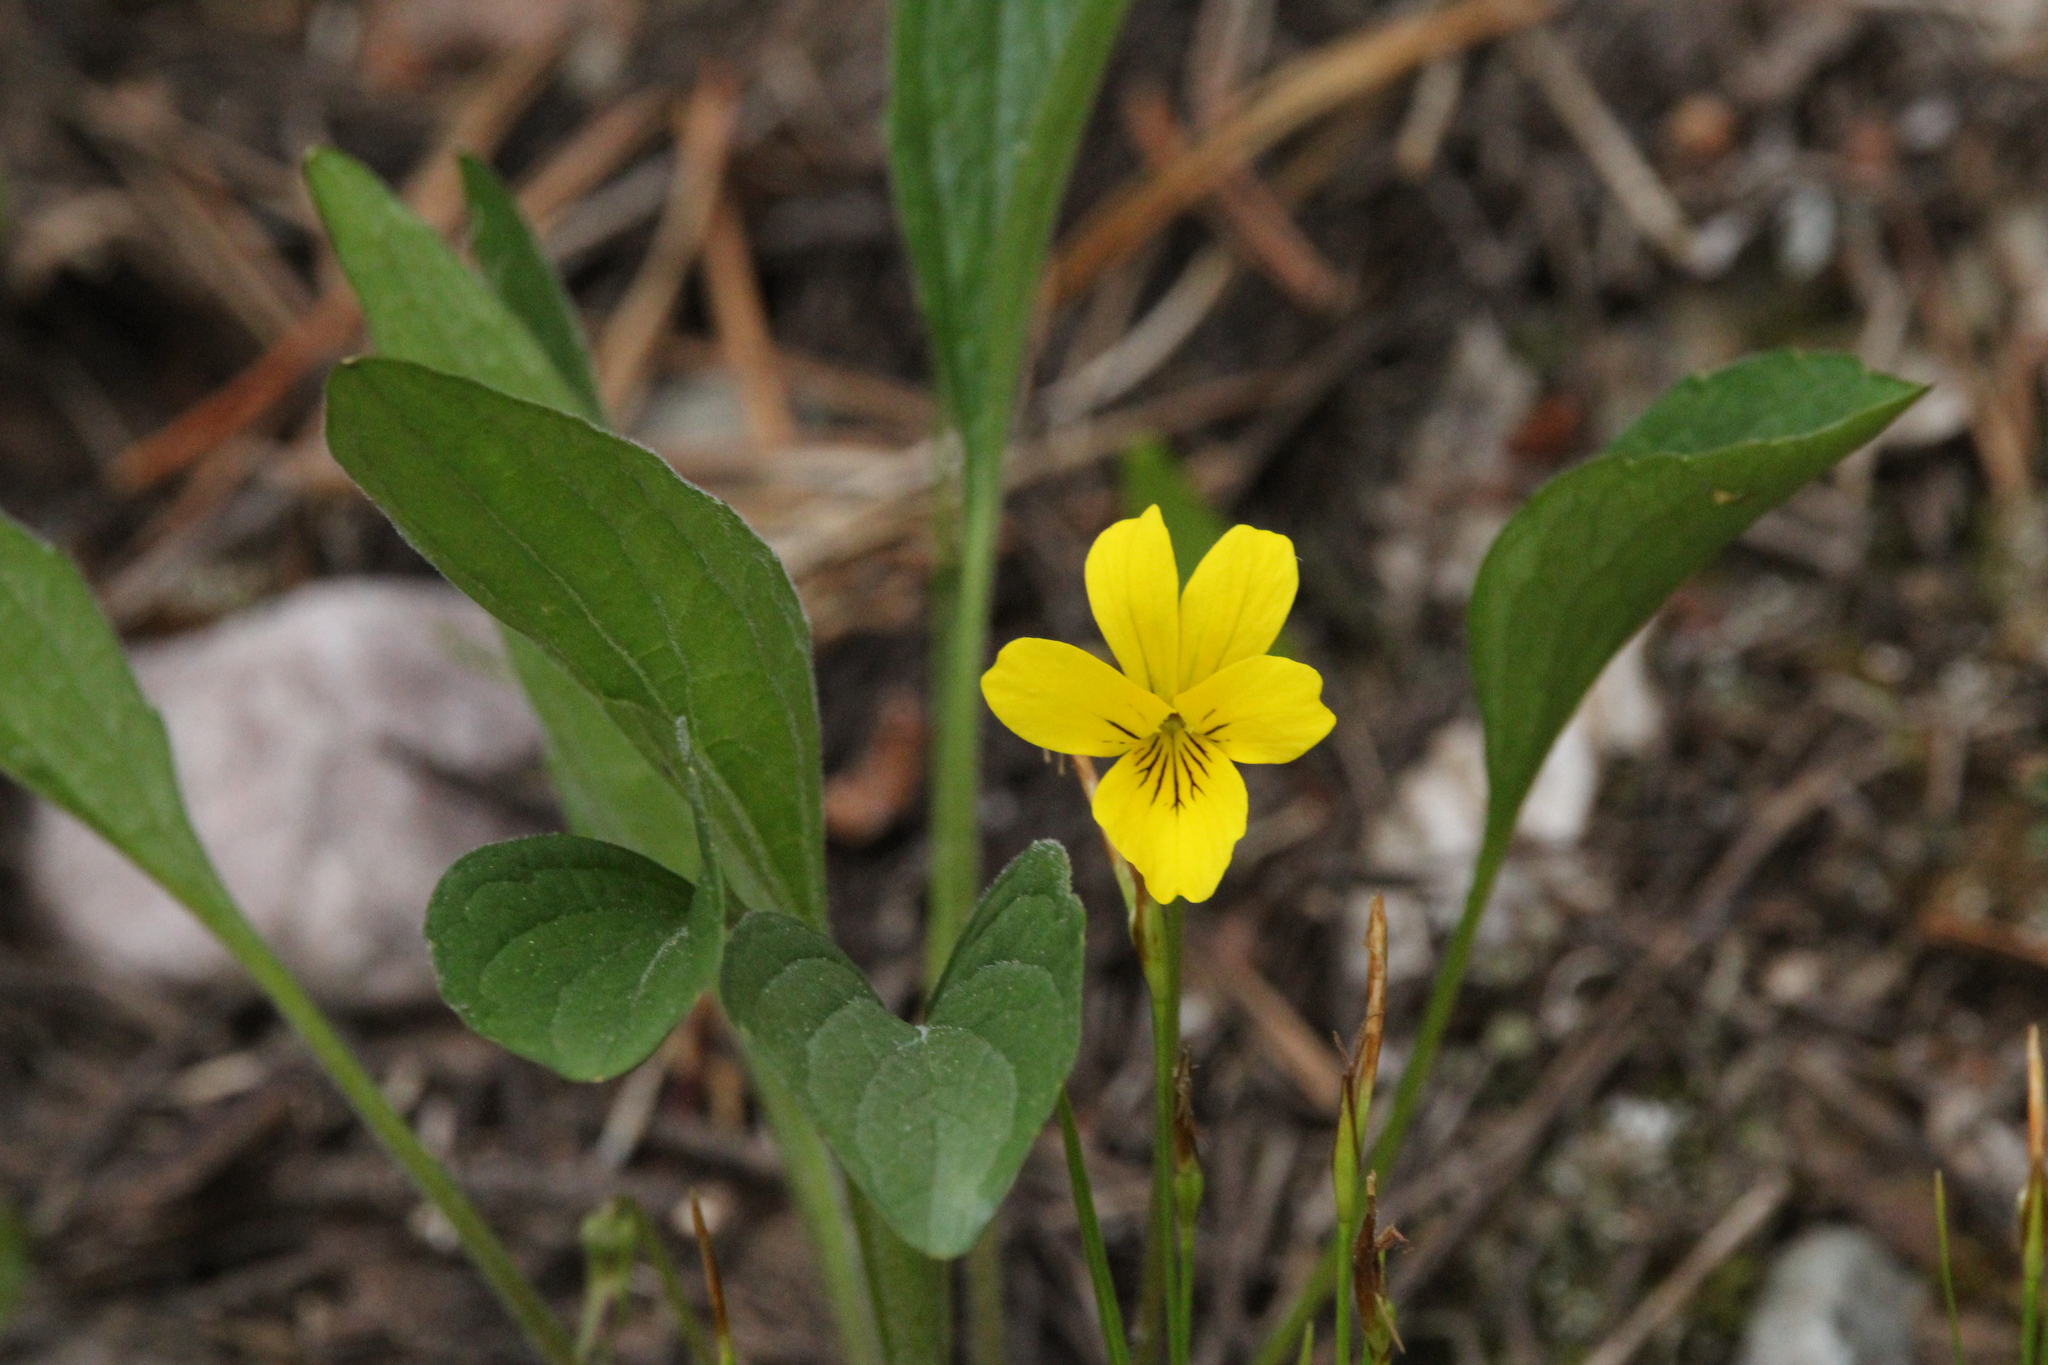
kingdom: Plantae
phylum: Tracheophyta
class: Magnoliopsida
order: Malpighiales
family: Violaceae
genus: Viola
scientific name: Viola nuttallii
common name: Yellow prairie violet
